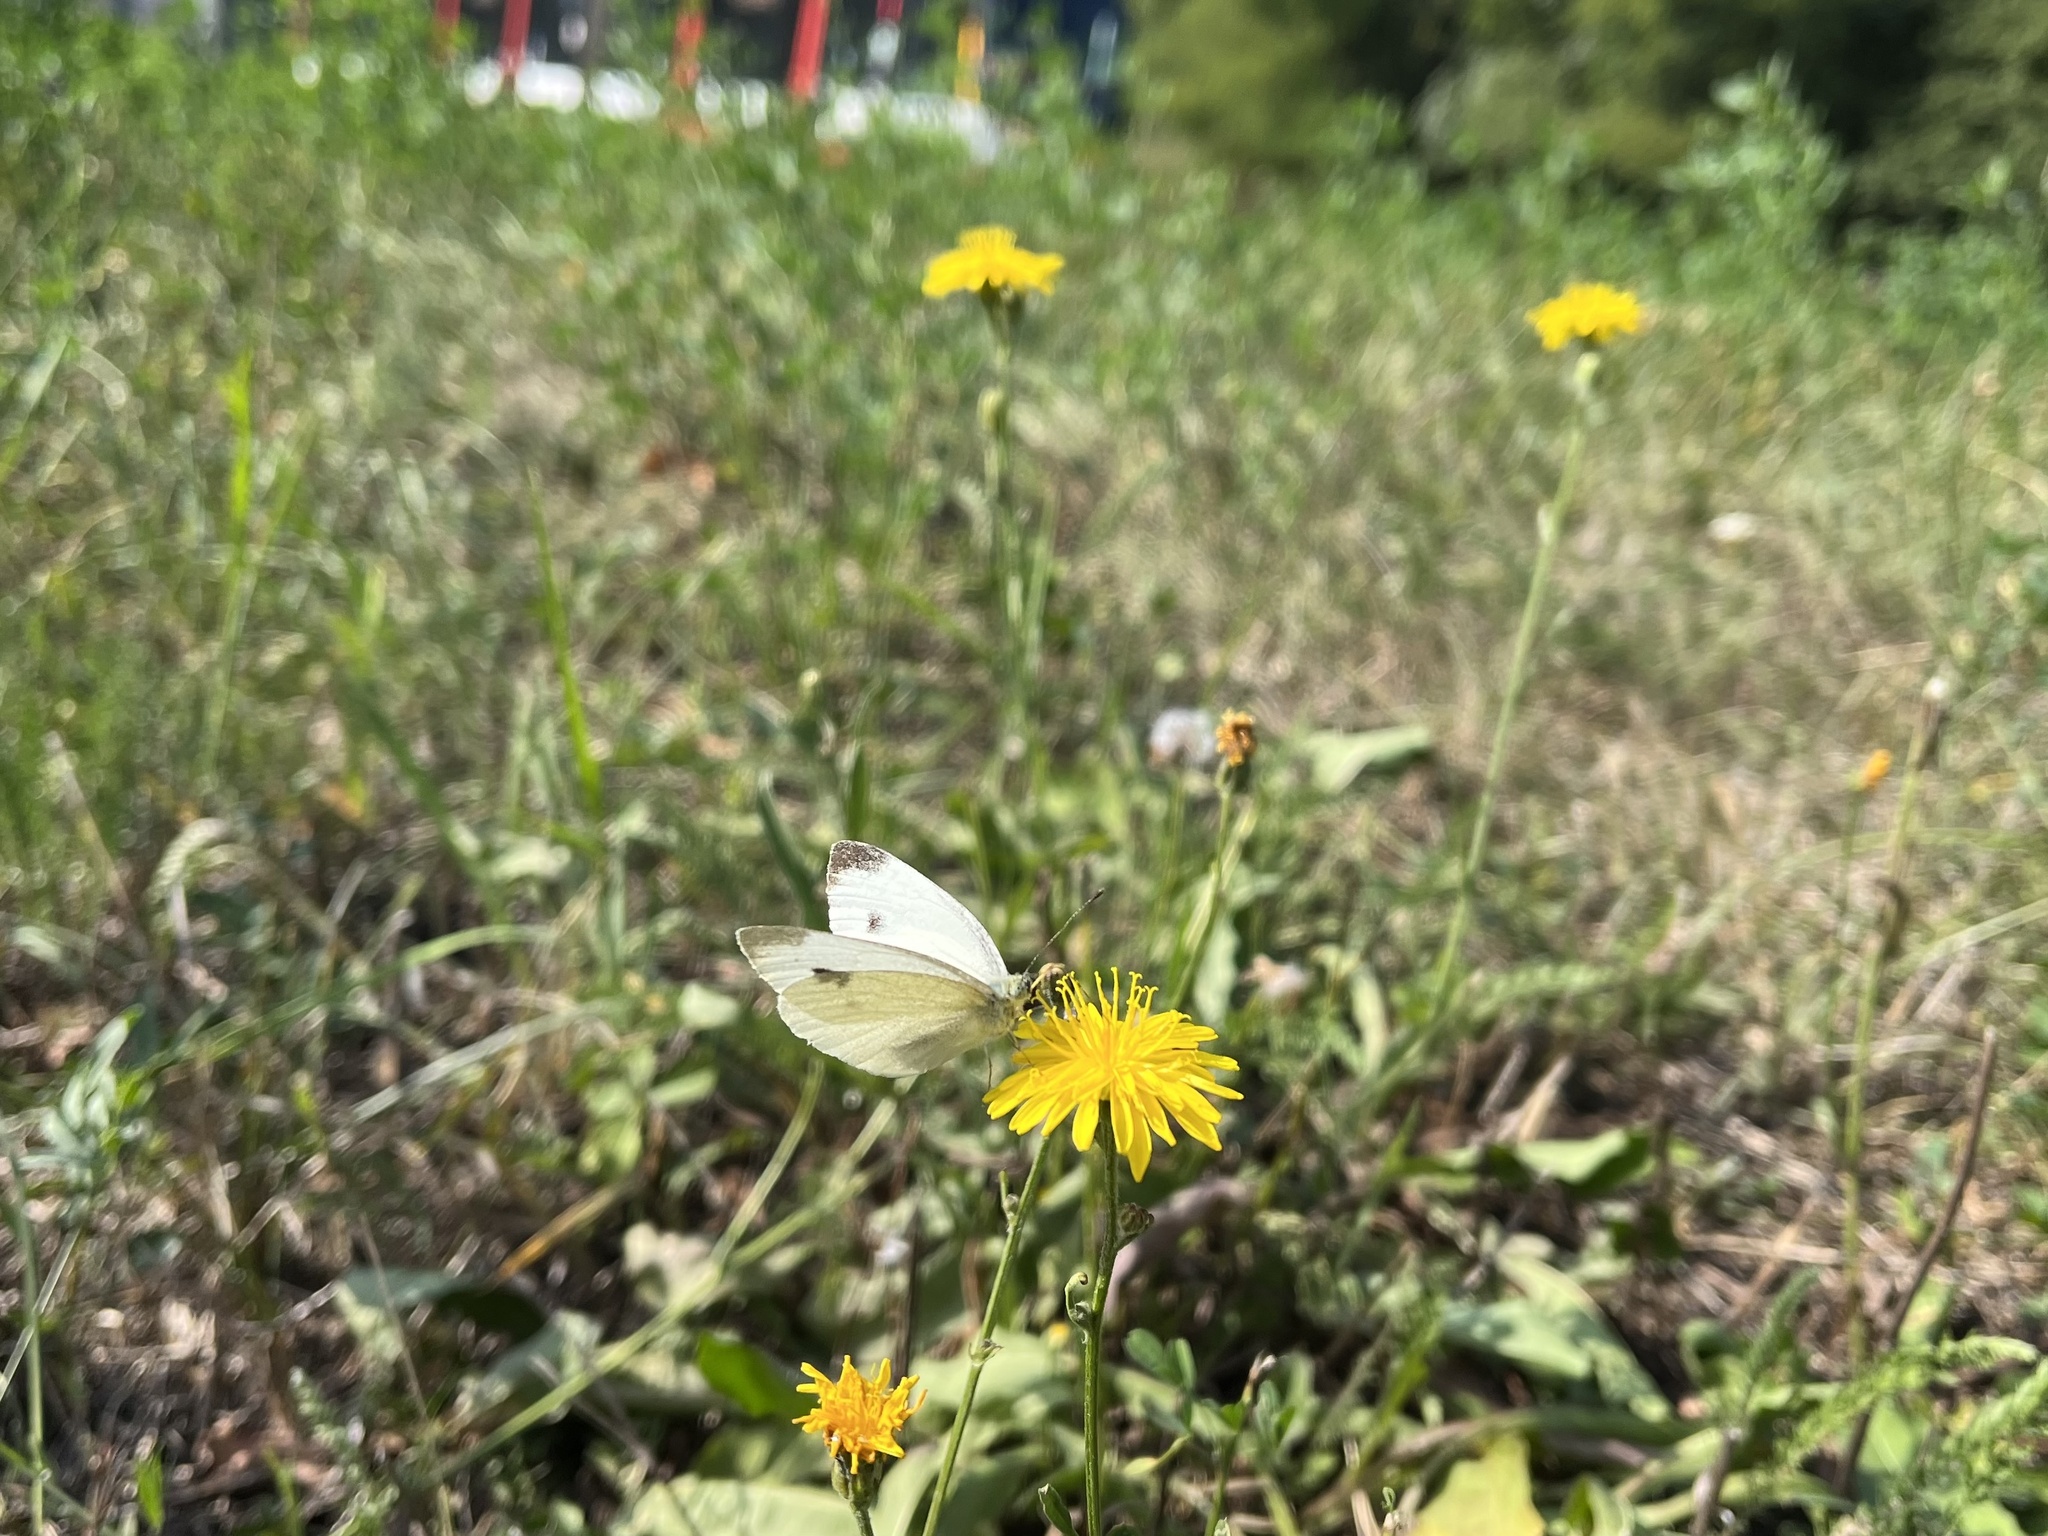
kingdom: Animalia
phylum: Arthropoda
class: Insecta
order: Lepidoptera
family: Pieridae
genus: Pieris
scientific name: Pieris rapae
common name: Small white
